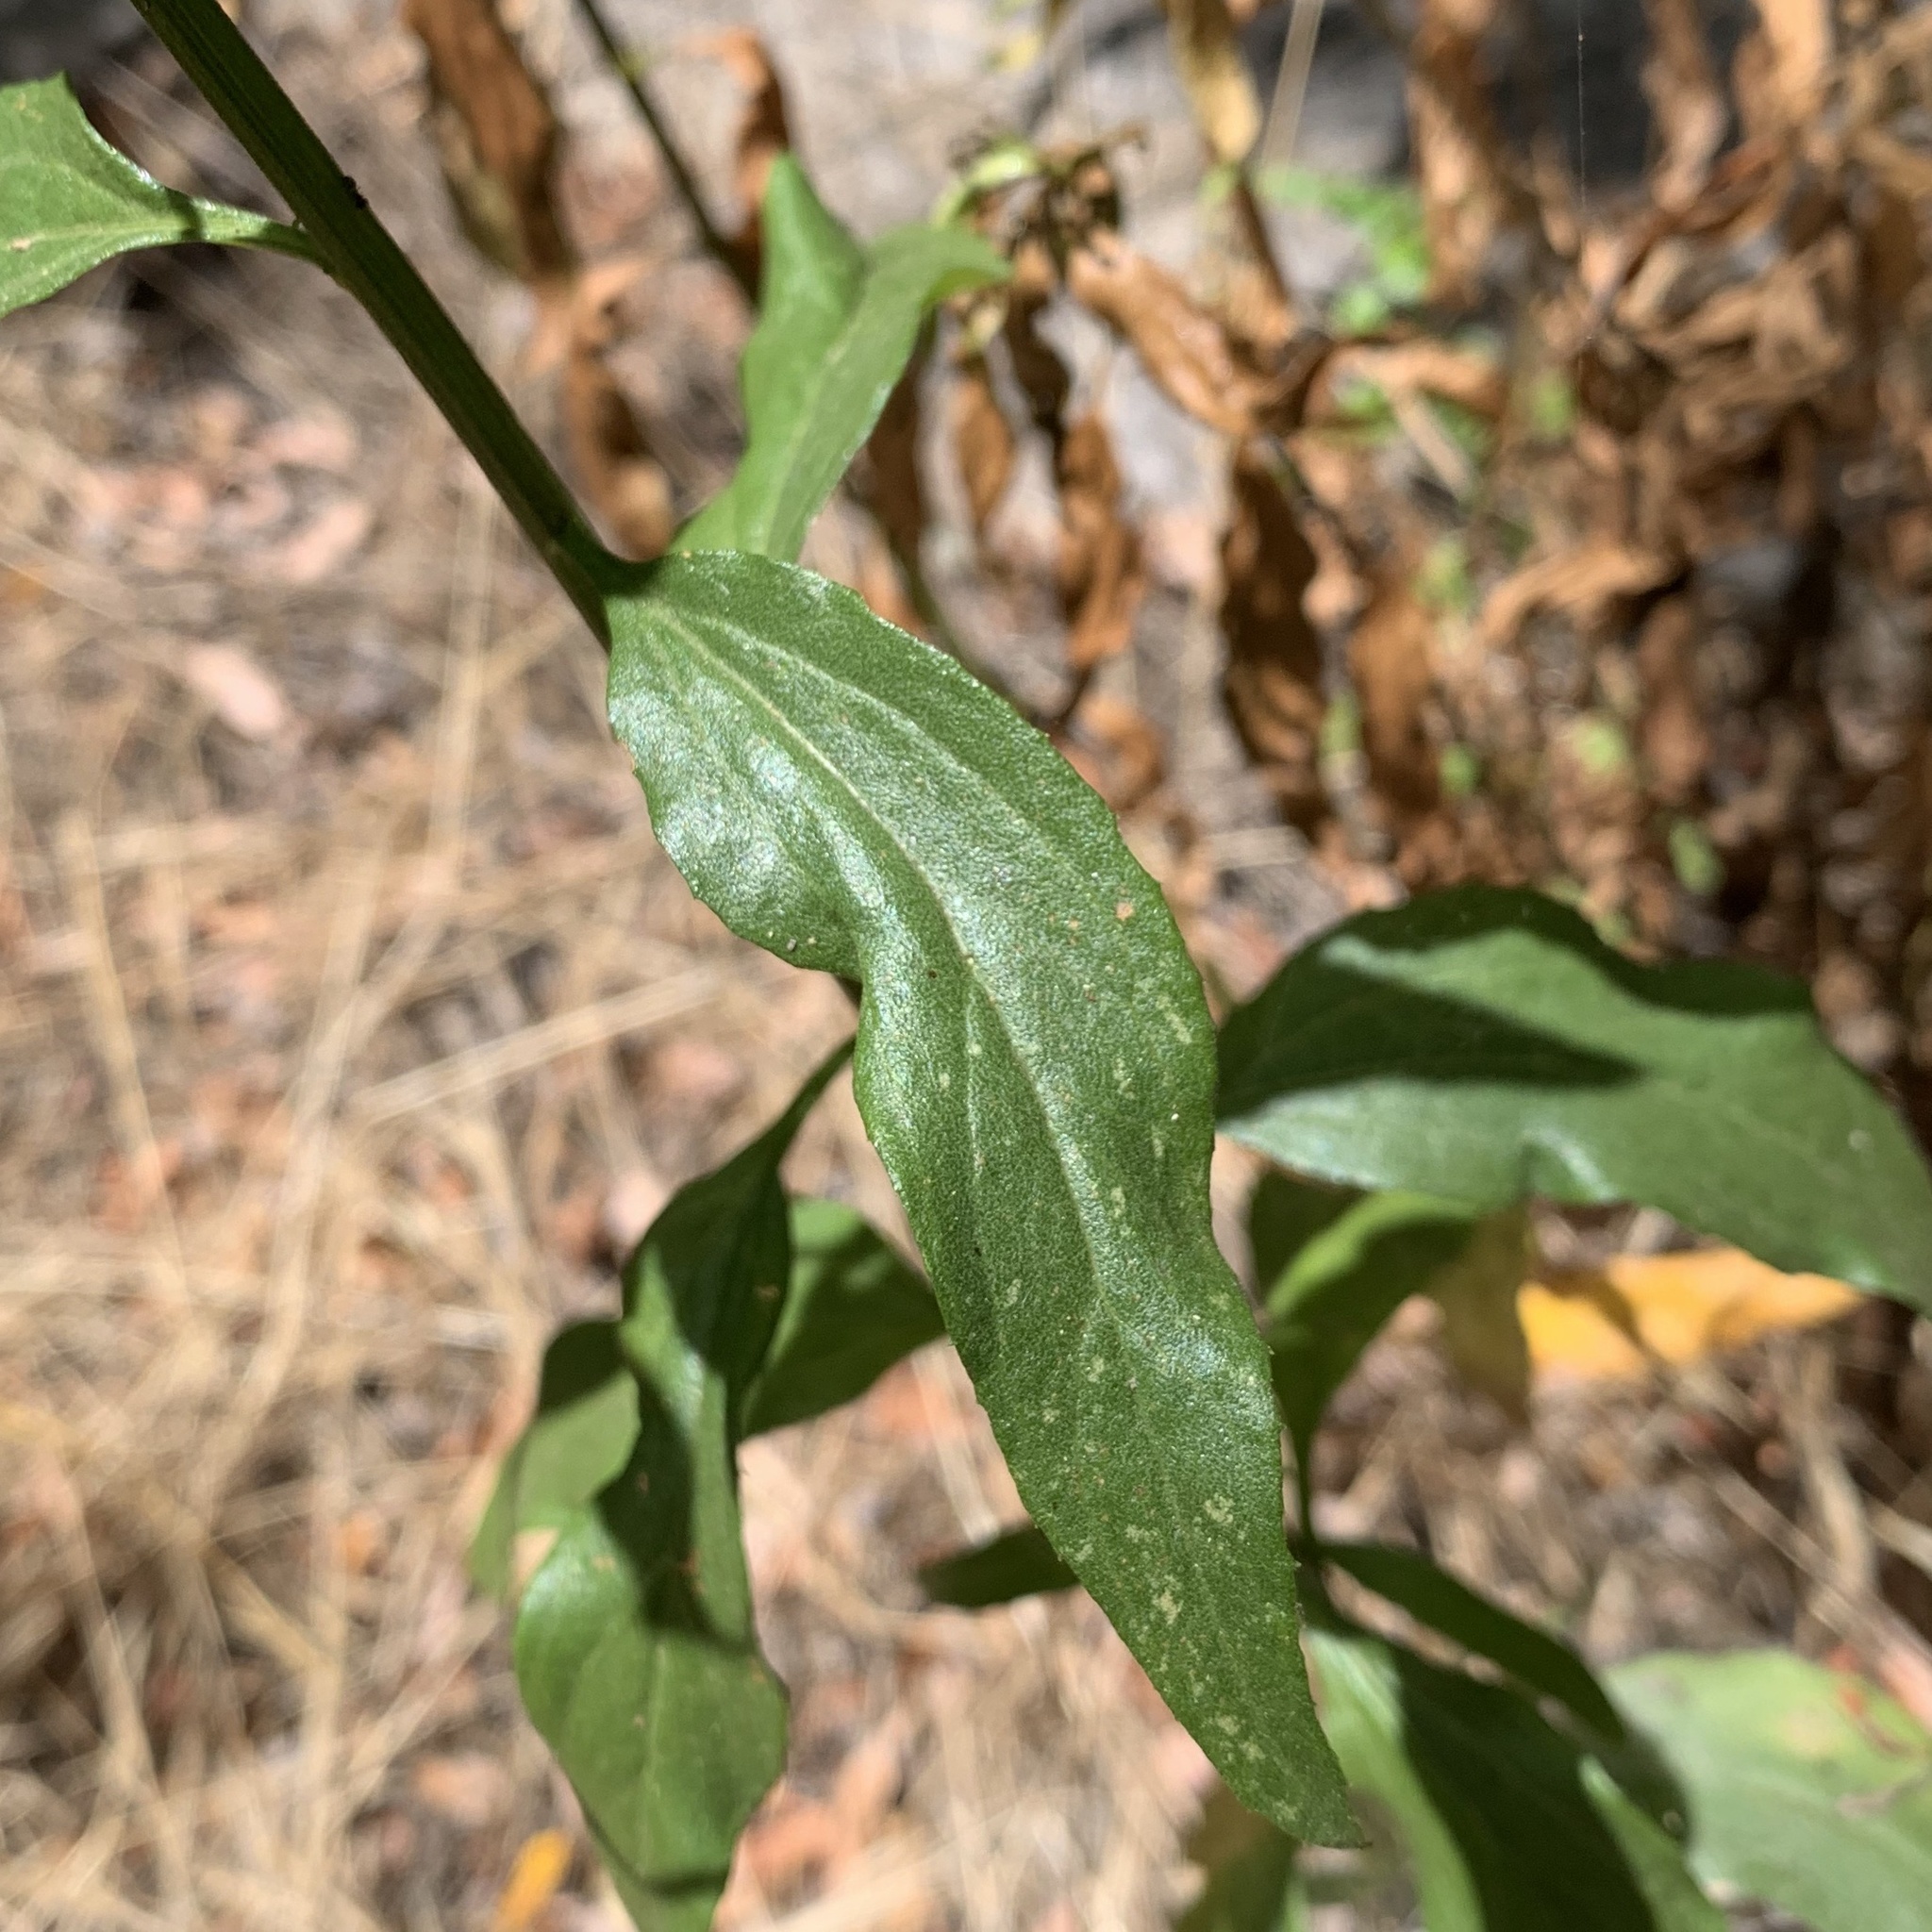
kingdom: Plantae
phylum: Tracheophyta
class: Magnoliopsida
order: Asterales
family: Asteraceae
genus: Baccharis
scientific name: Baccharis glutinosa
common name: Saltmarsh baccharis
